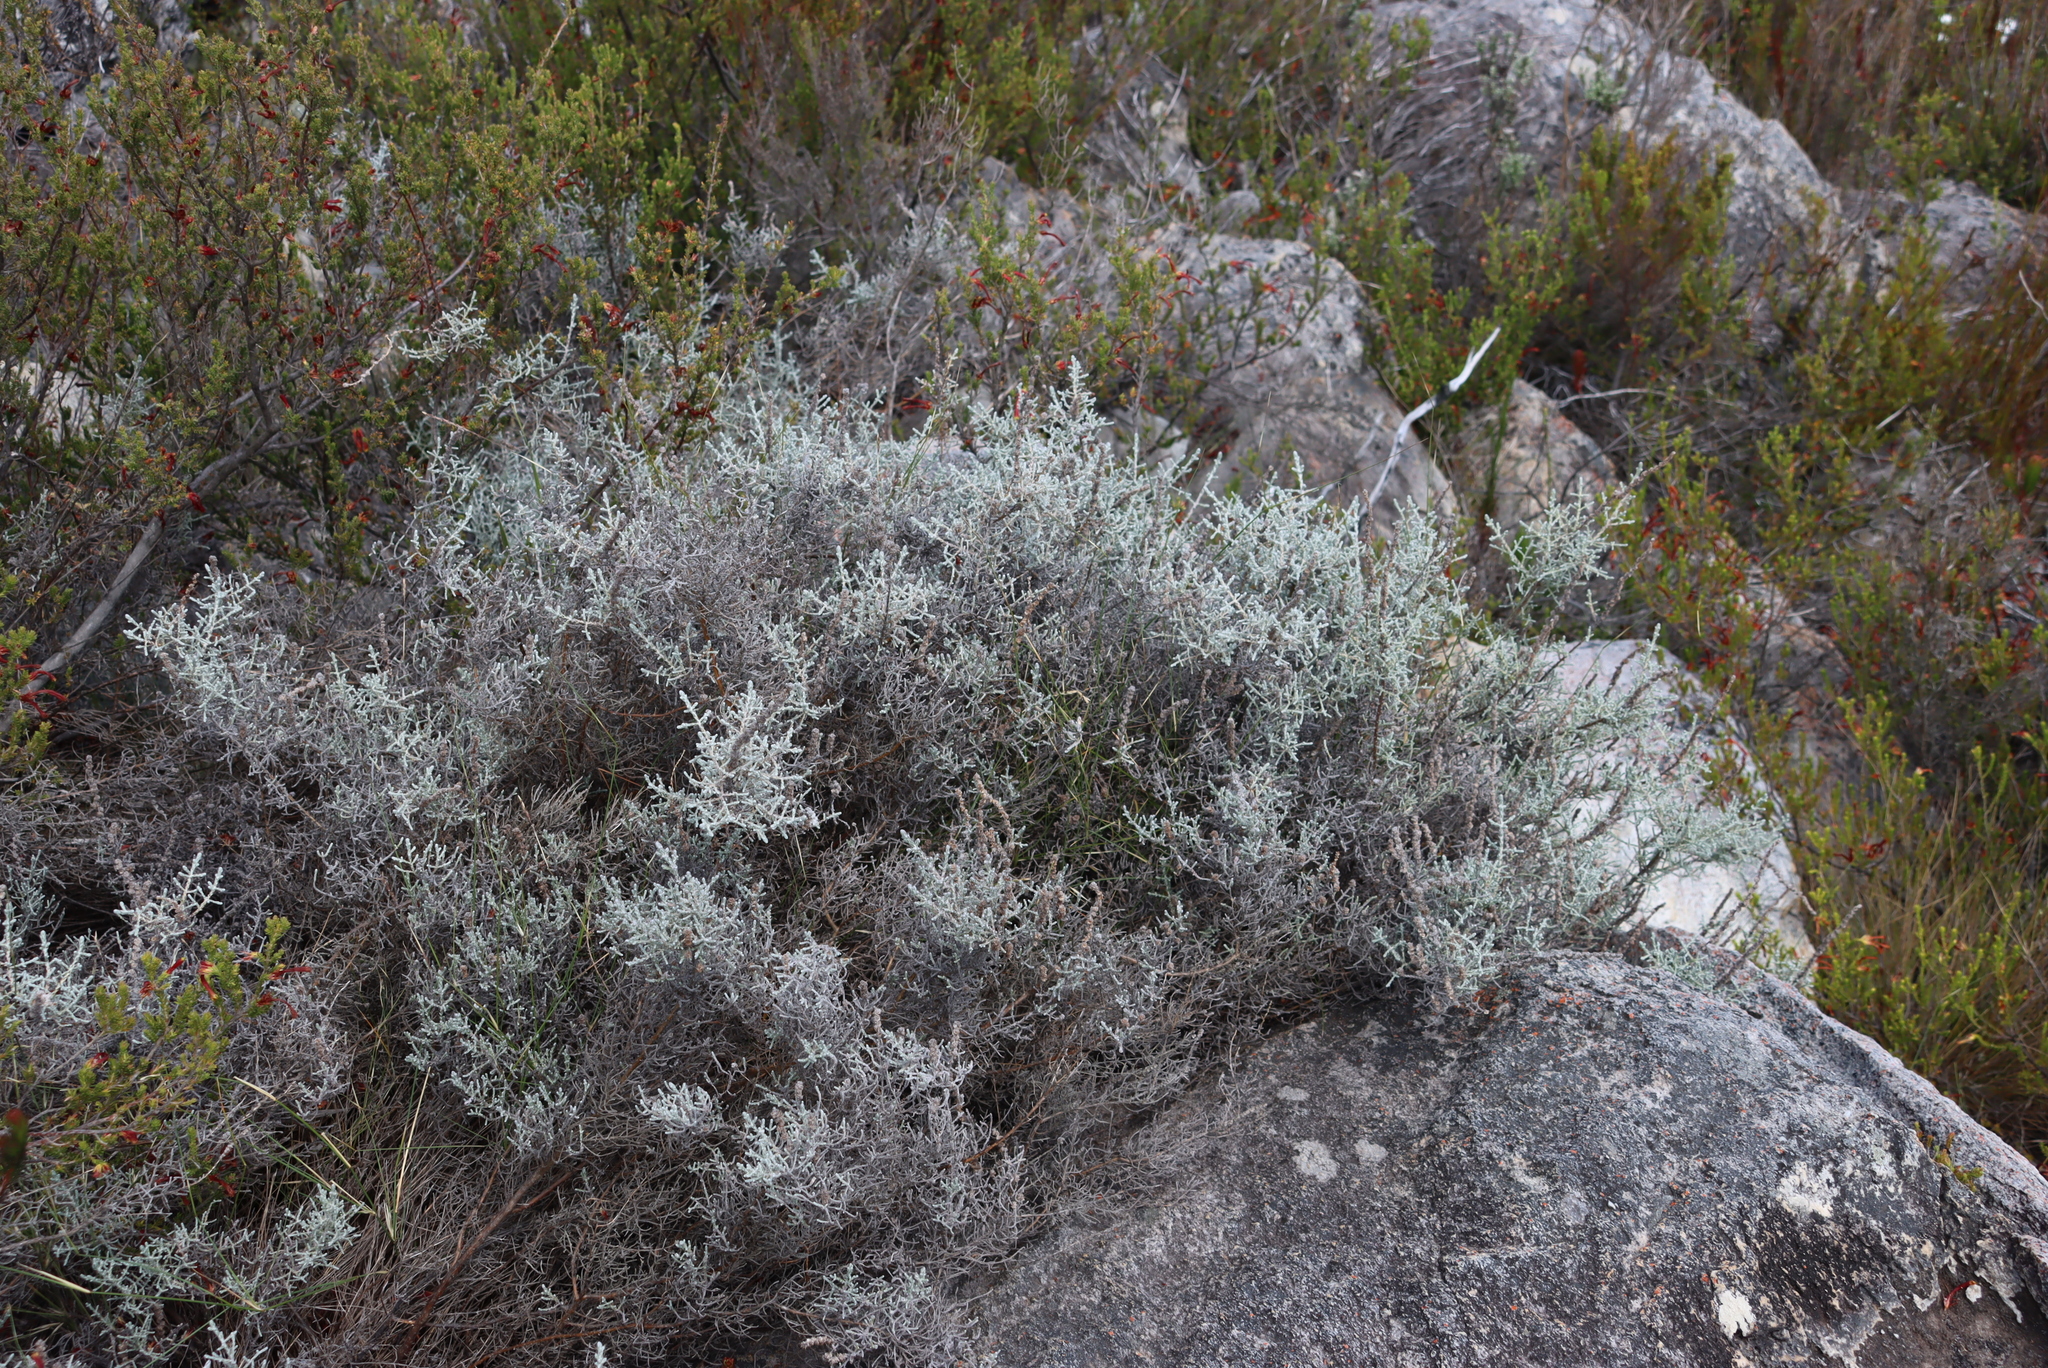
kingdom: Plantae
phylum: Tracheophyta
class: Magnoliopsida
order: Asterales
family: Asteraceae
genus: Seriphium
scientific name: Seriphium plumosum
